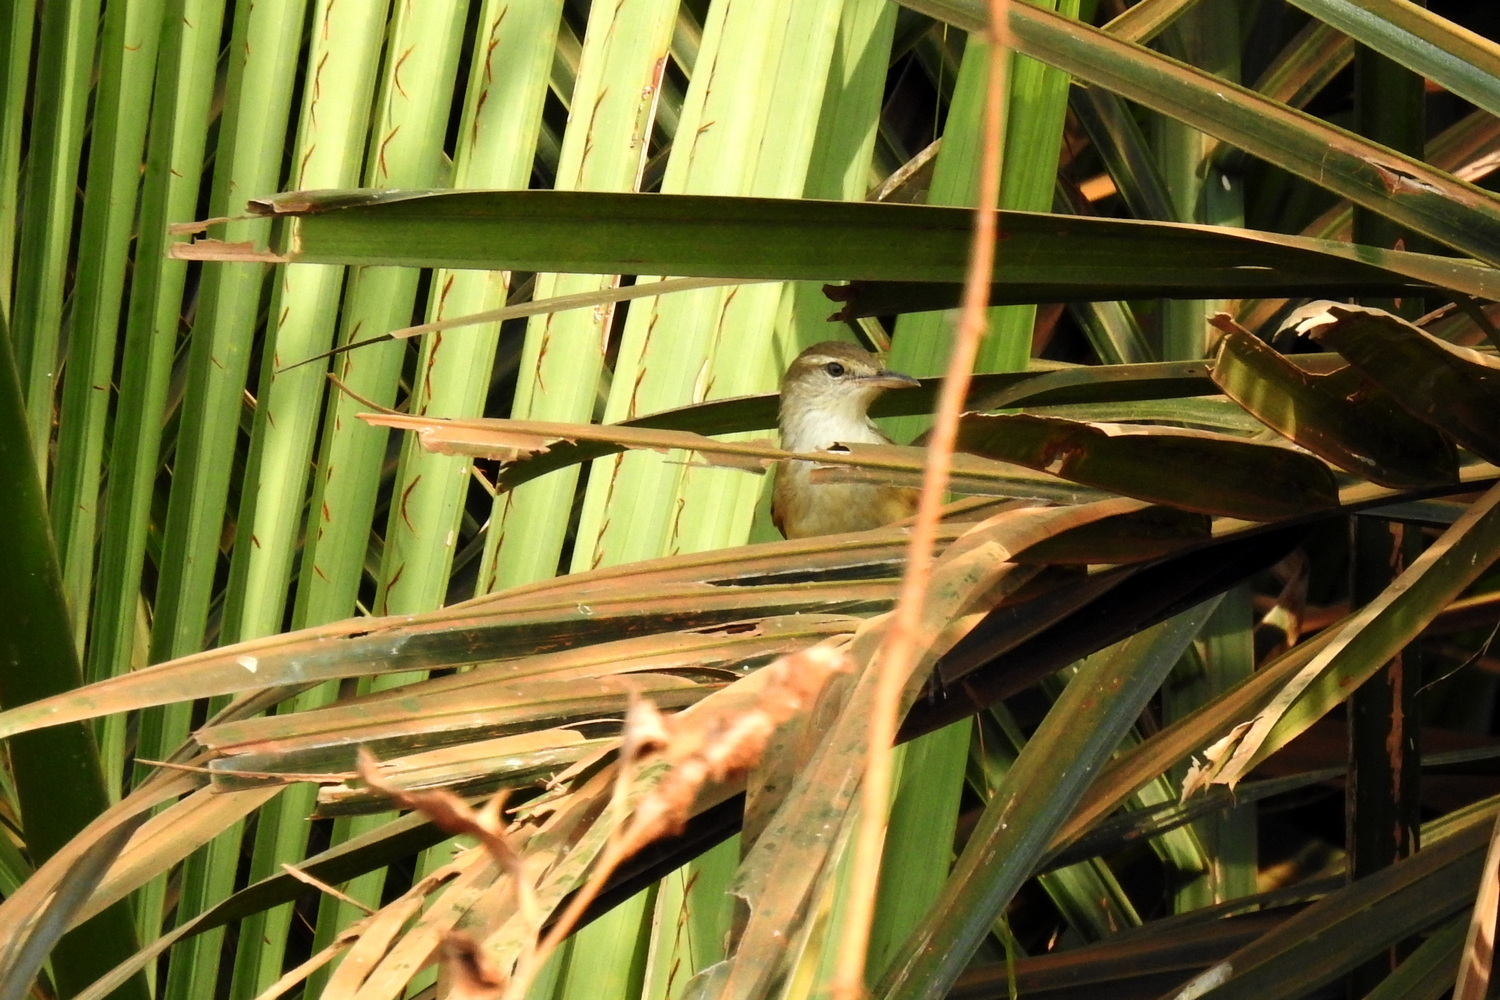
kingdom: Animalia
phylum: Chordata
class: Aves
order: Passeriformes
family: Cisticolidae
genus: Prinia
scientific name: Prinia inornata
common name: Plain prinia
